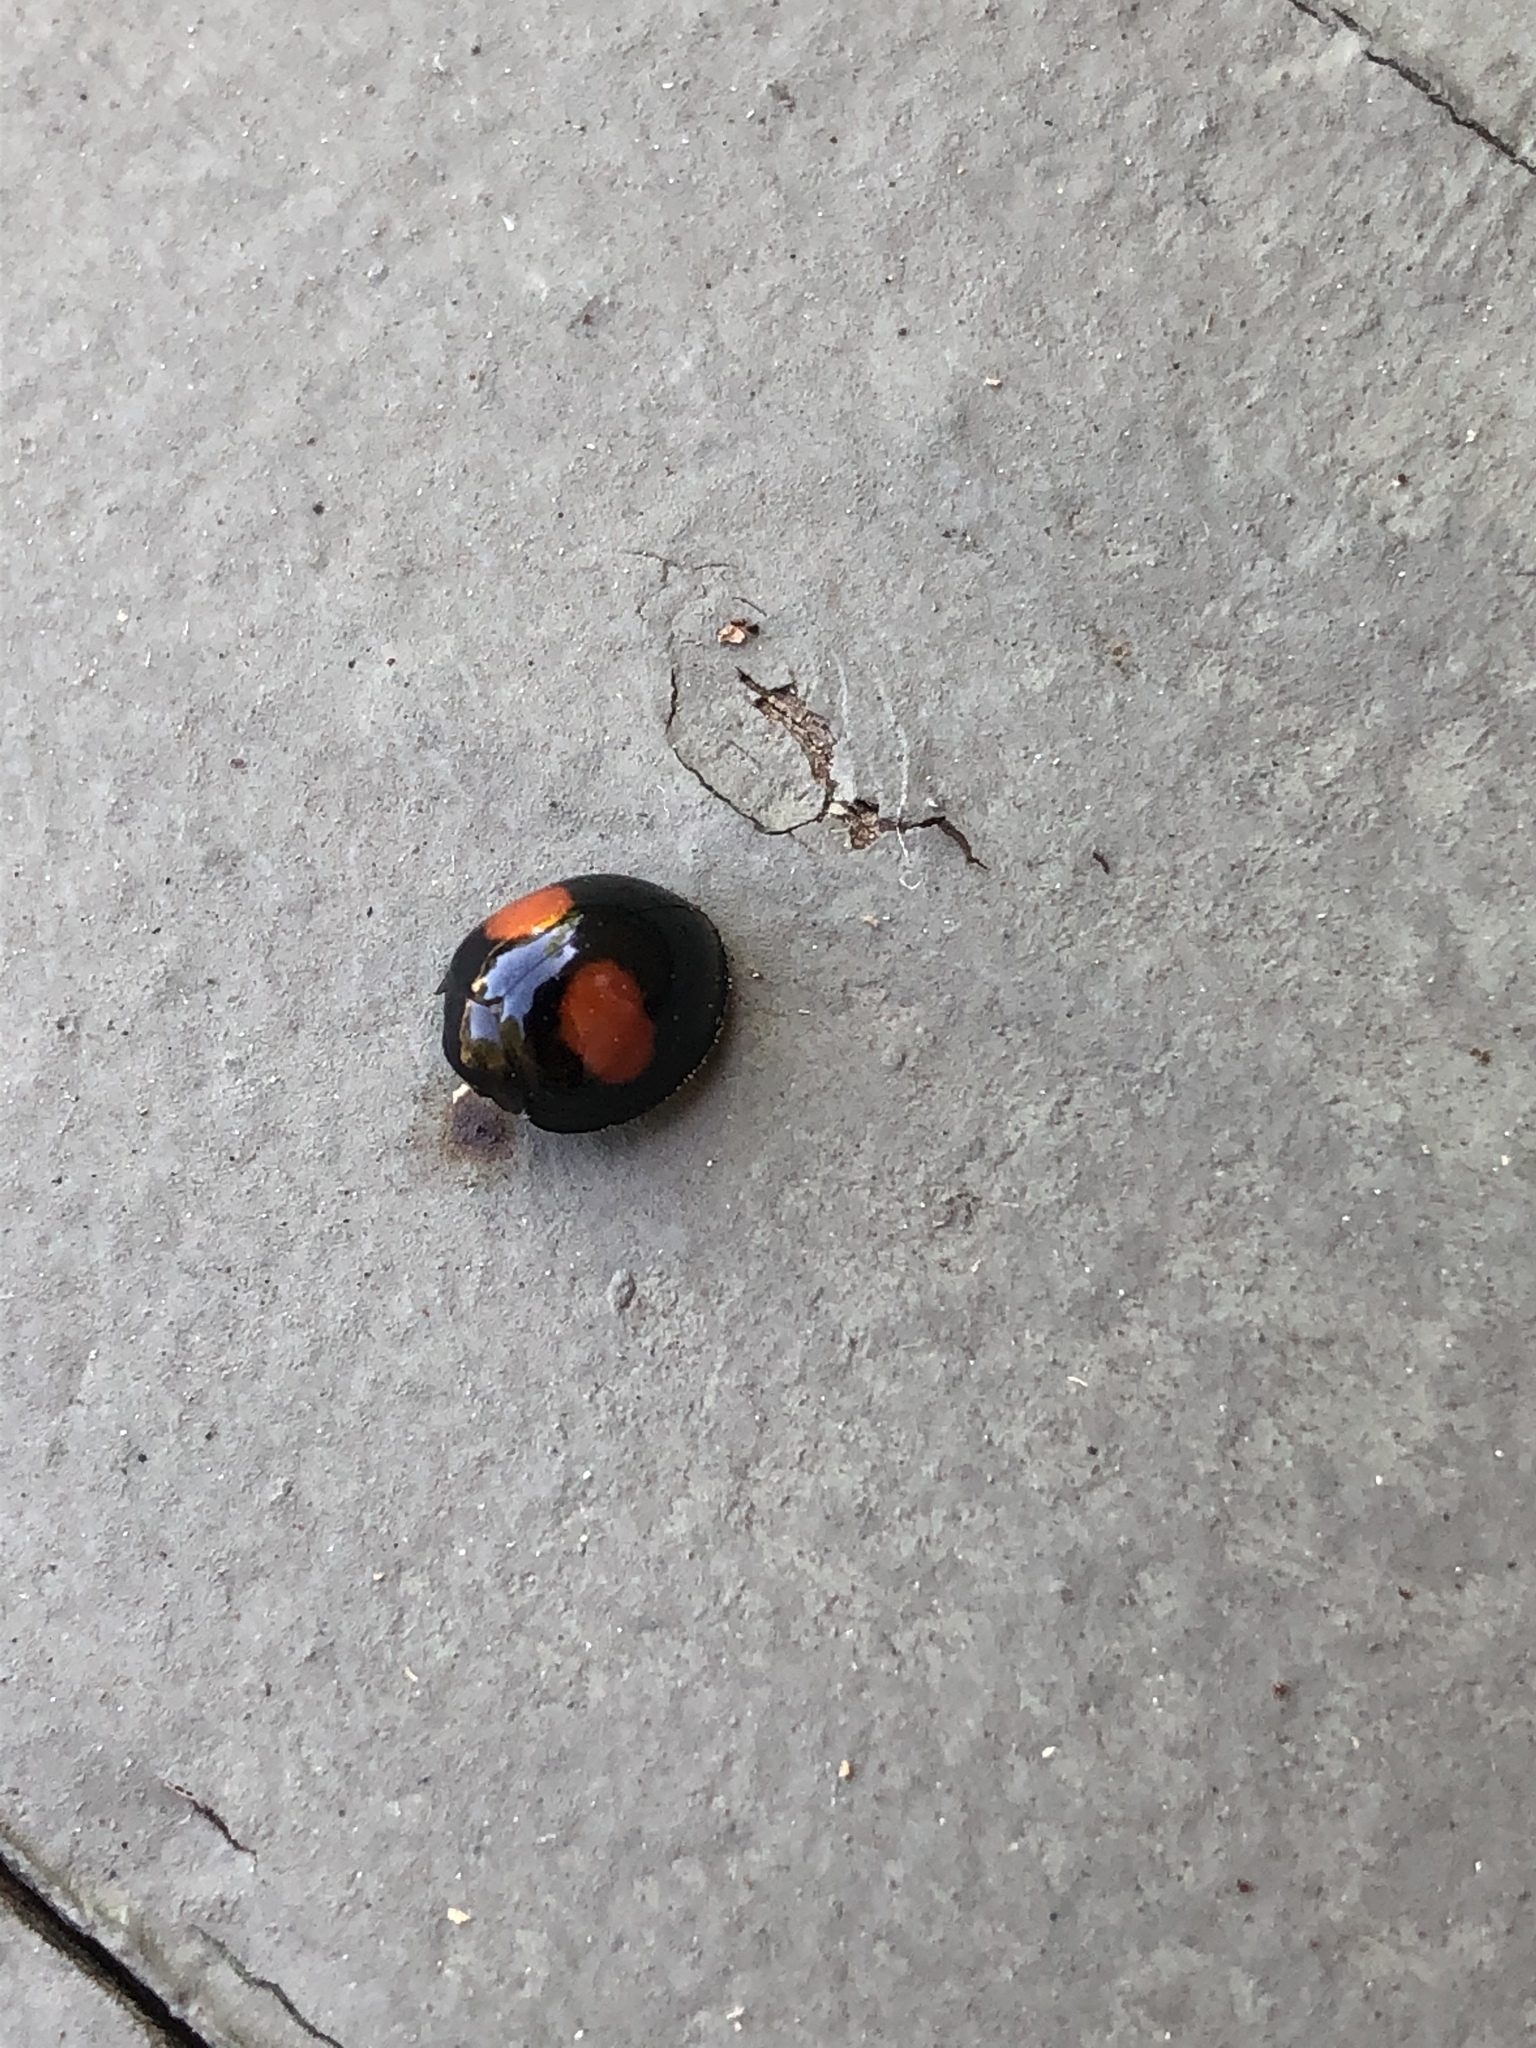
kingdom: Animalia
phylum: Arthropoda
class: Insecta
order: Coleoptera
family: Coccinellidae
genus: Chilocorus
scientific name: Chilocorus cacti
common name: Cactus lady beetle
